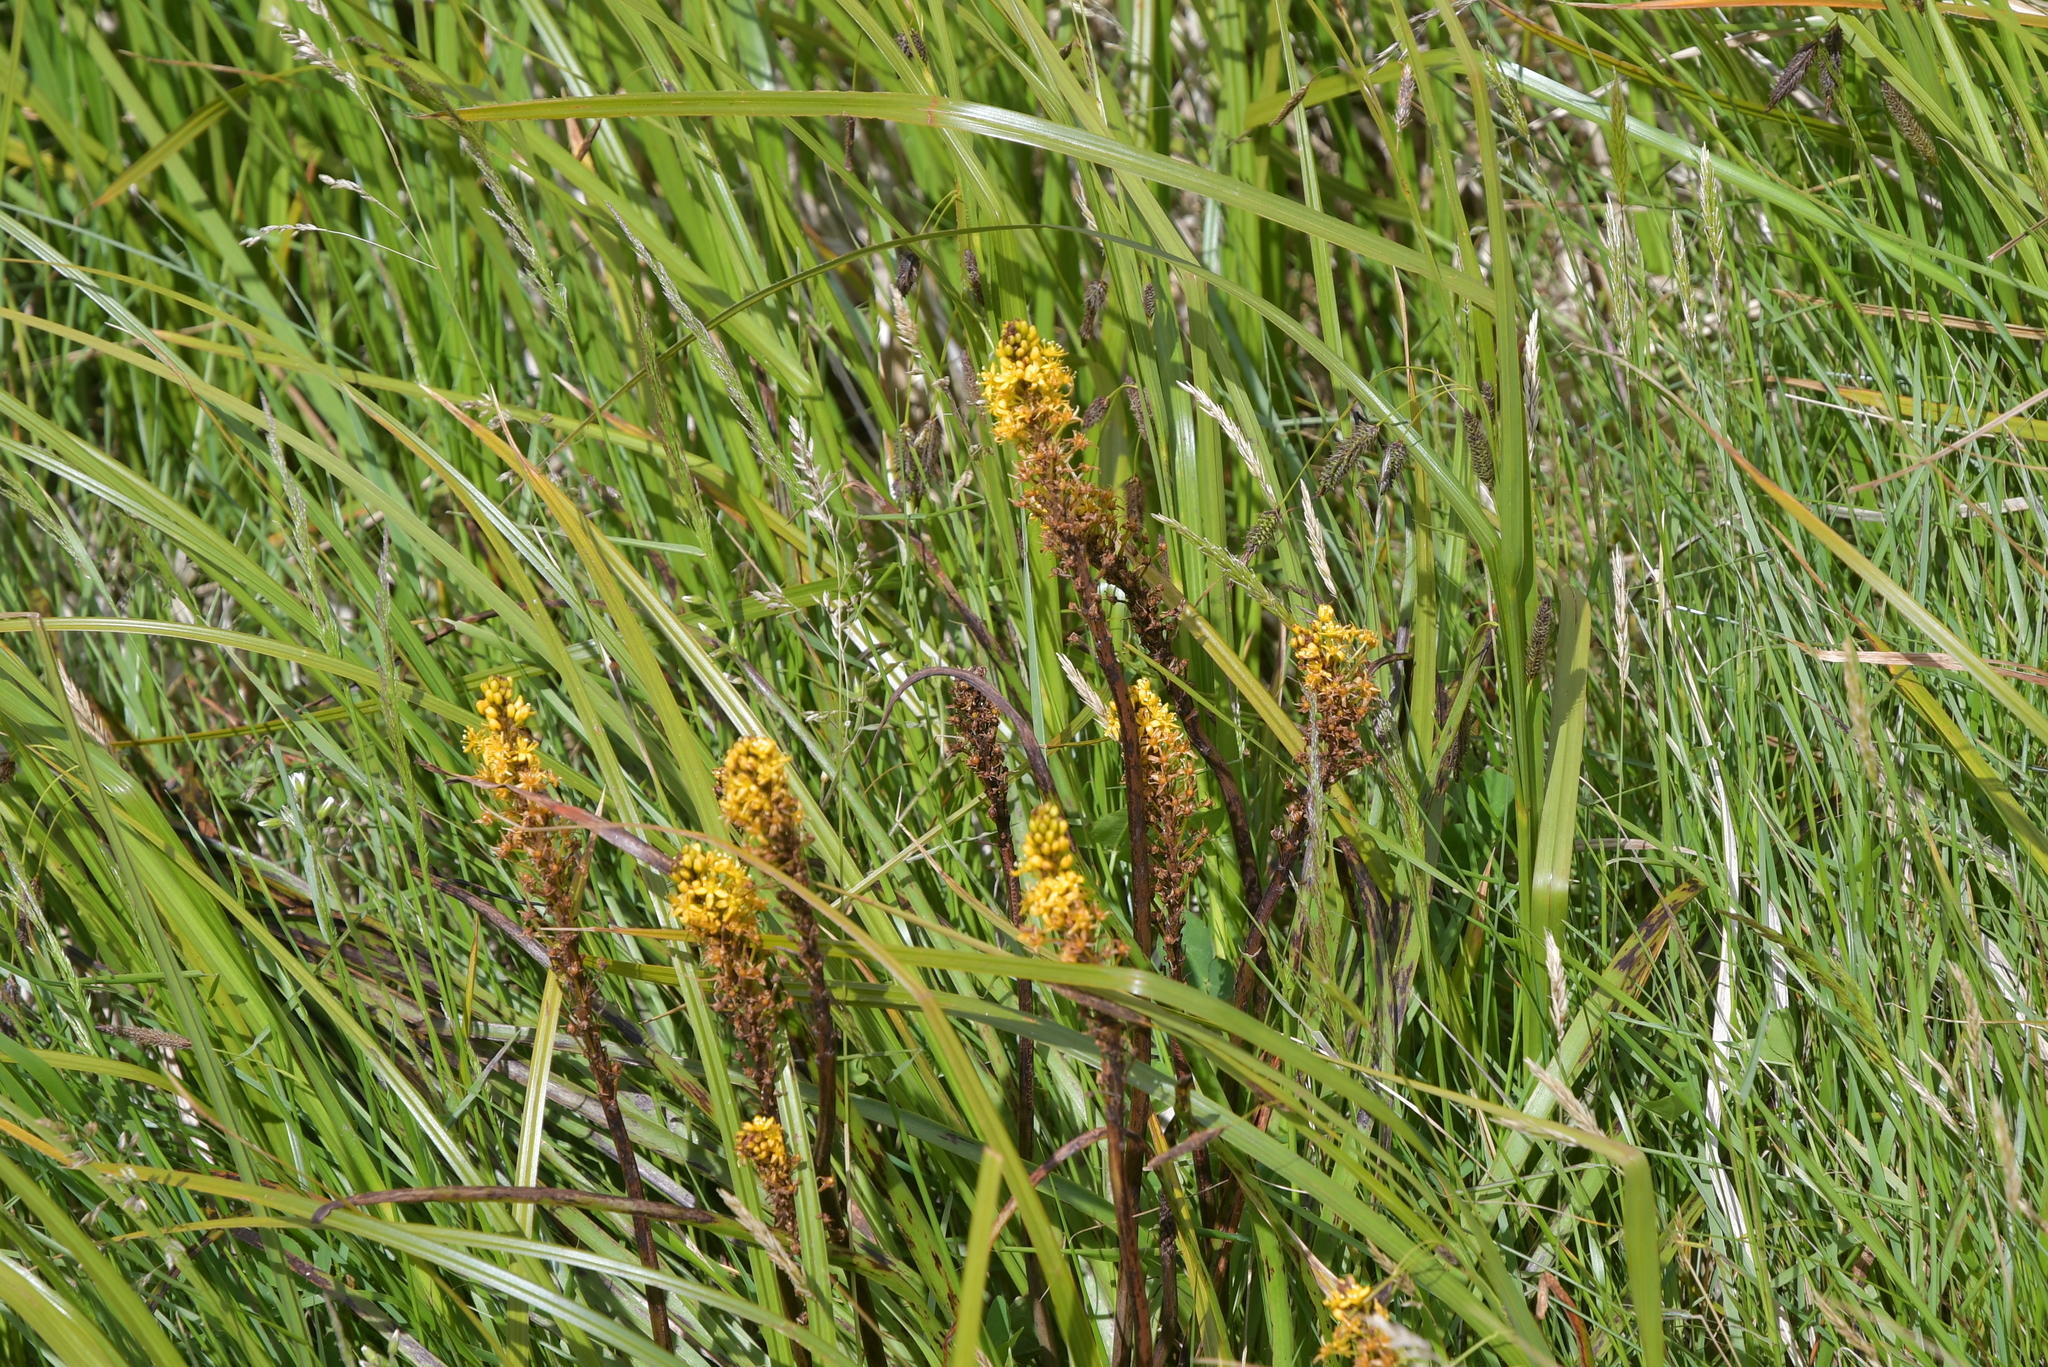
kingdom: Plantae
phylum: Tracheophyta
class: Liliopsida
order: Asparagales
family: Asphodelaceae
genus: Bulbinella
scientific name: Bulbinella angustifolia
